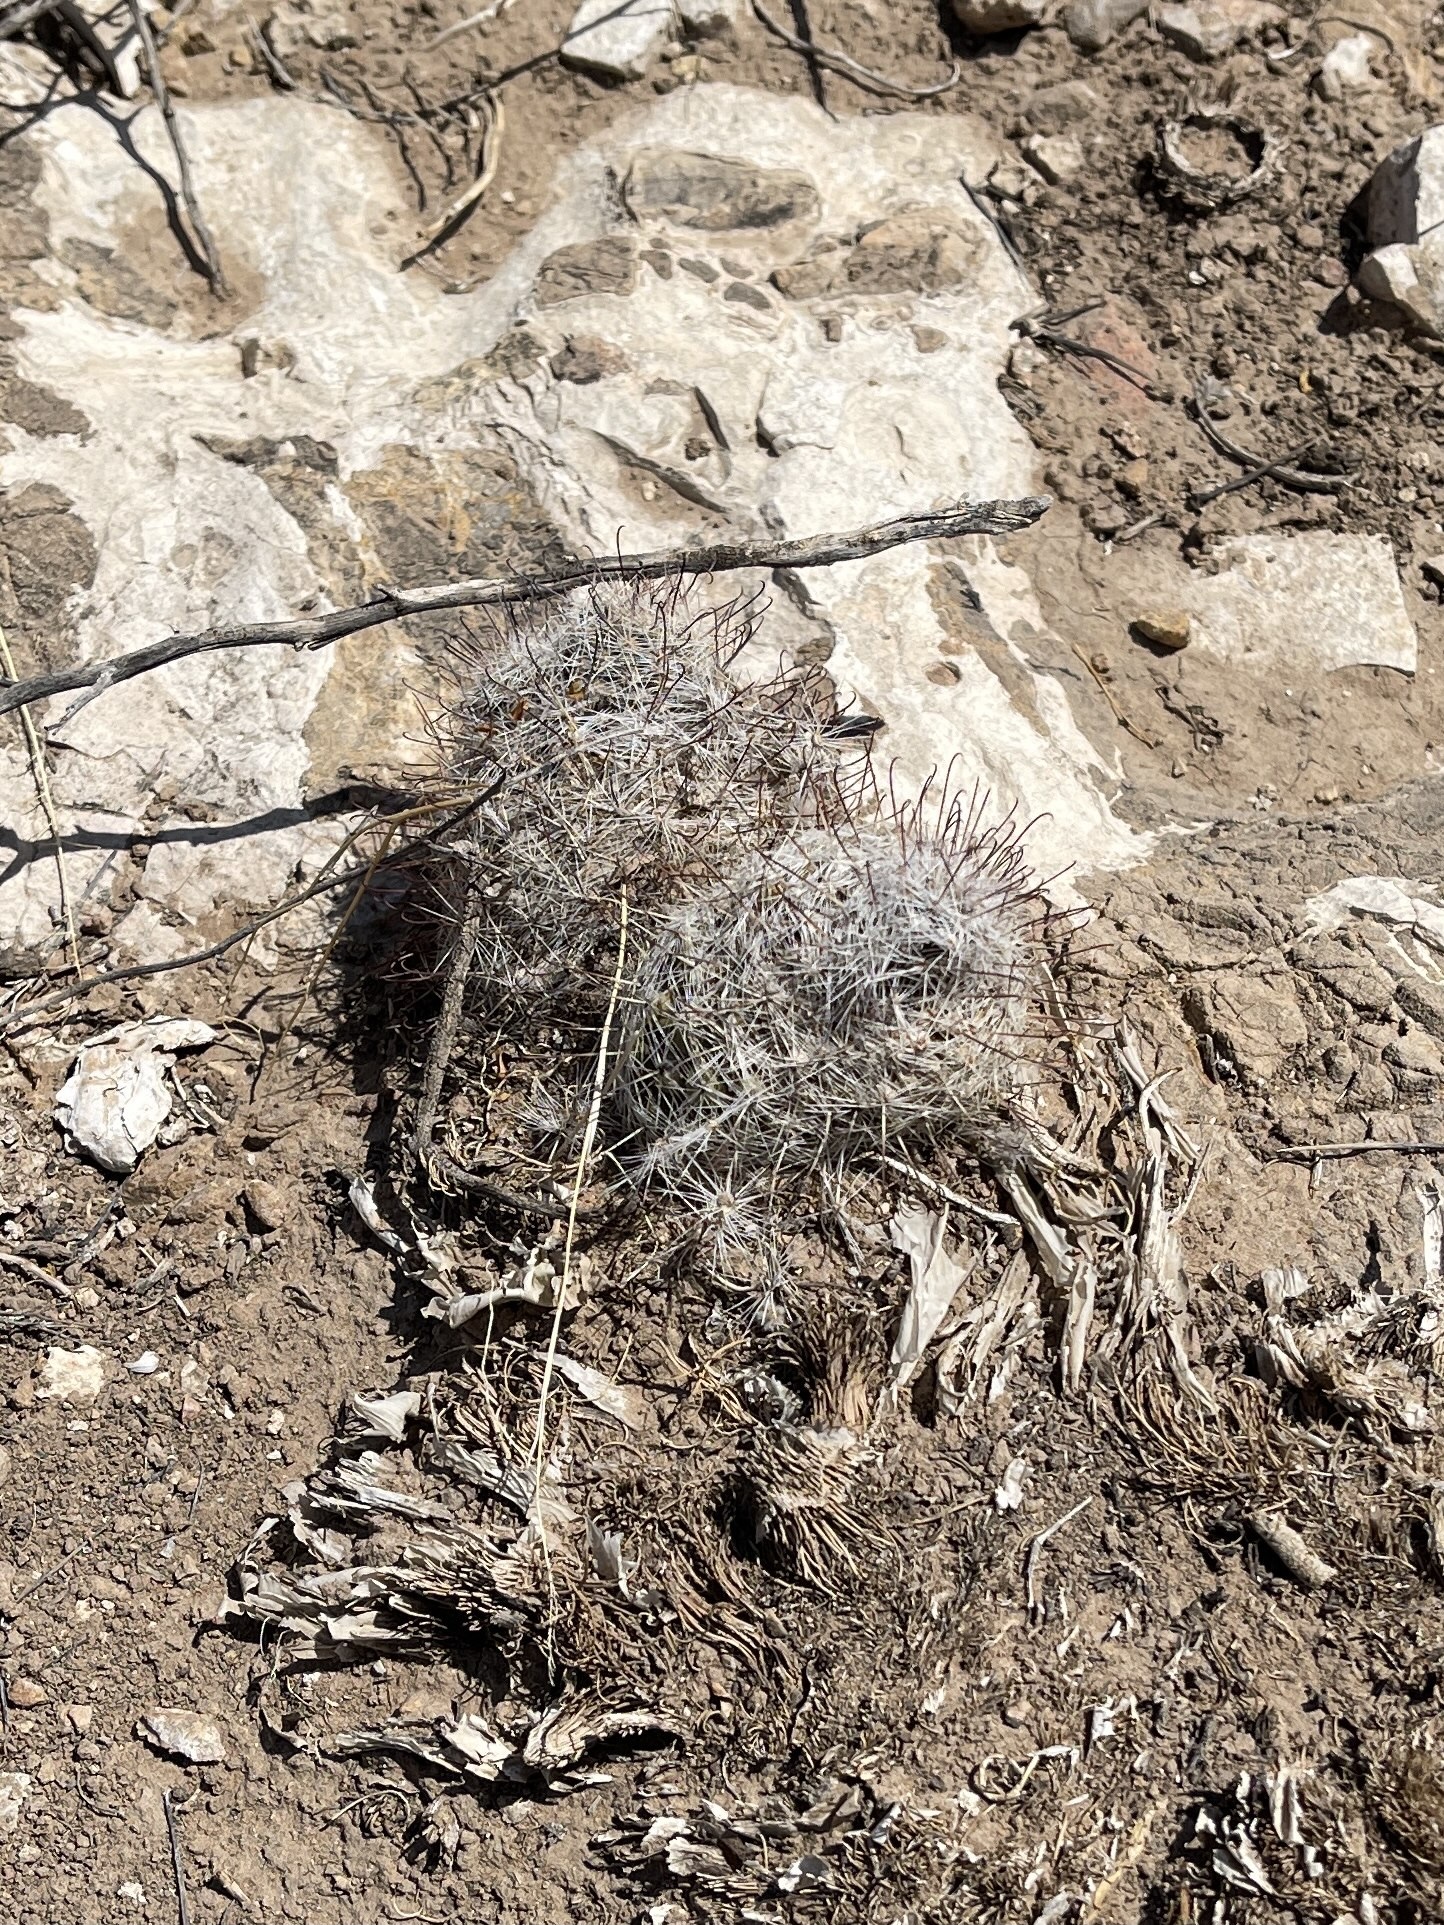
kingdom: Plantae
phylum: Tracheophyta
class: Magnoliopsida
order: Caryophyllales
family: Cactaceae
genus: Cochemiea
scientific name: Cochemiea grahamii
